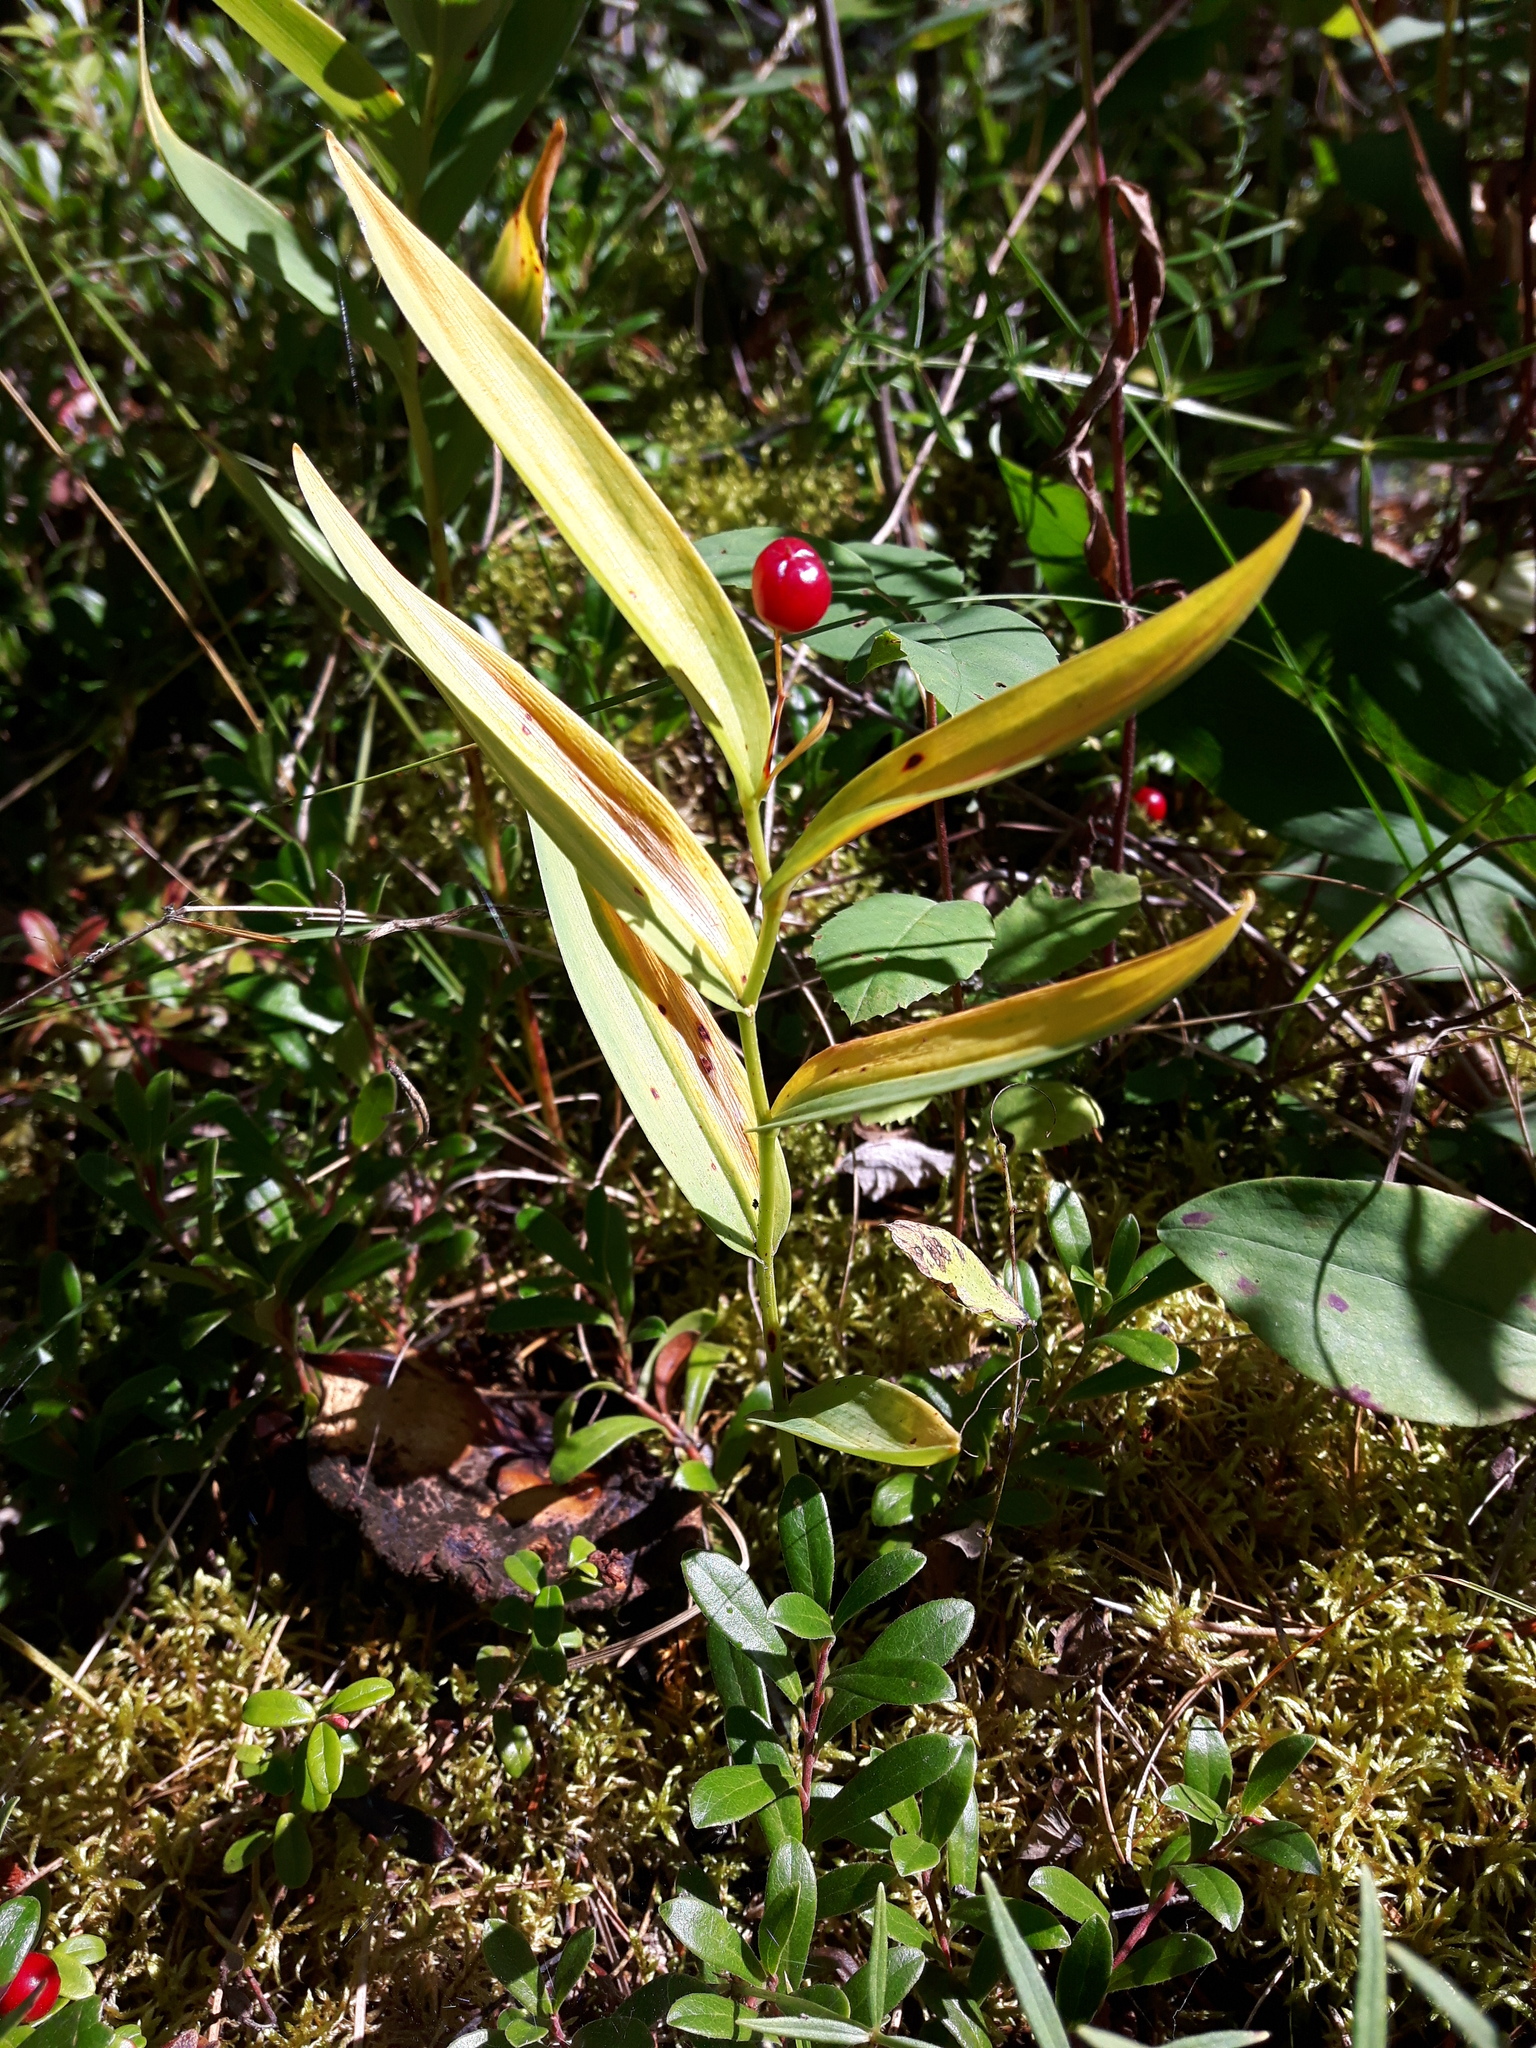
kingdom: Plantae
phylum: Tracheophyta
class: Liliopsida
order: Asparagales
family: Asparagaceae
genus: Maianthemum
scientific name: Maianthemum stellatum
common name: Little false solomon's seal
